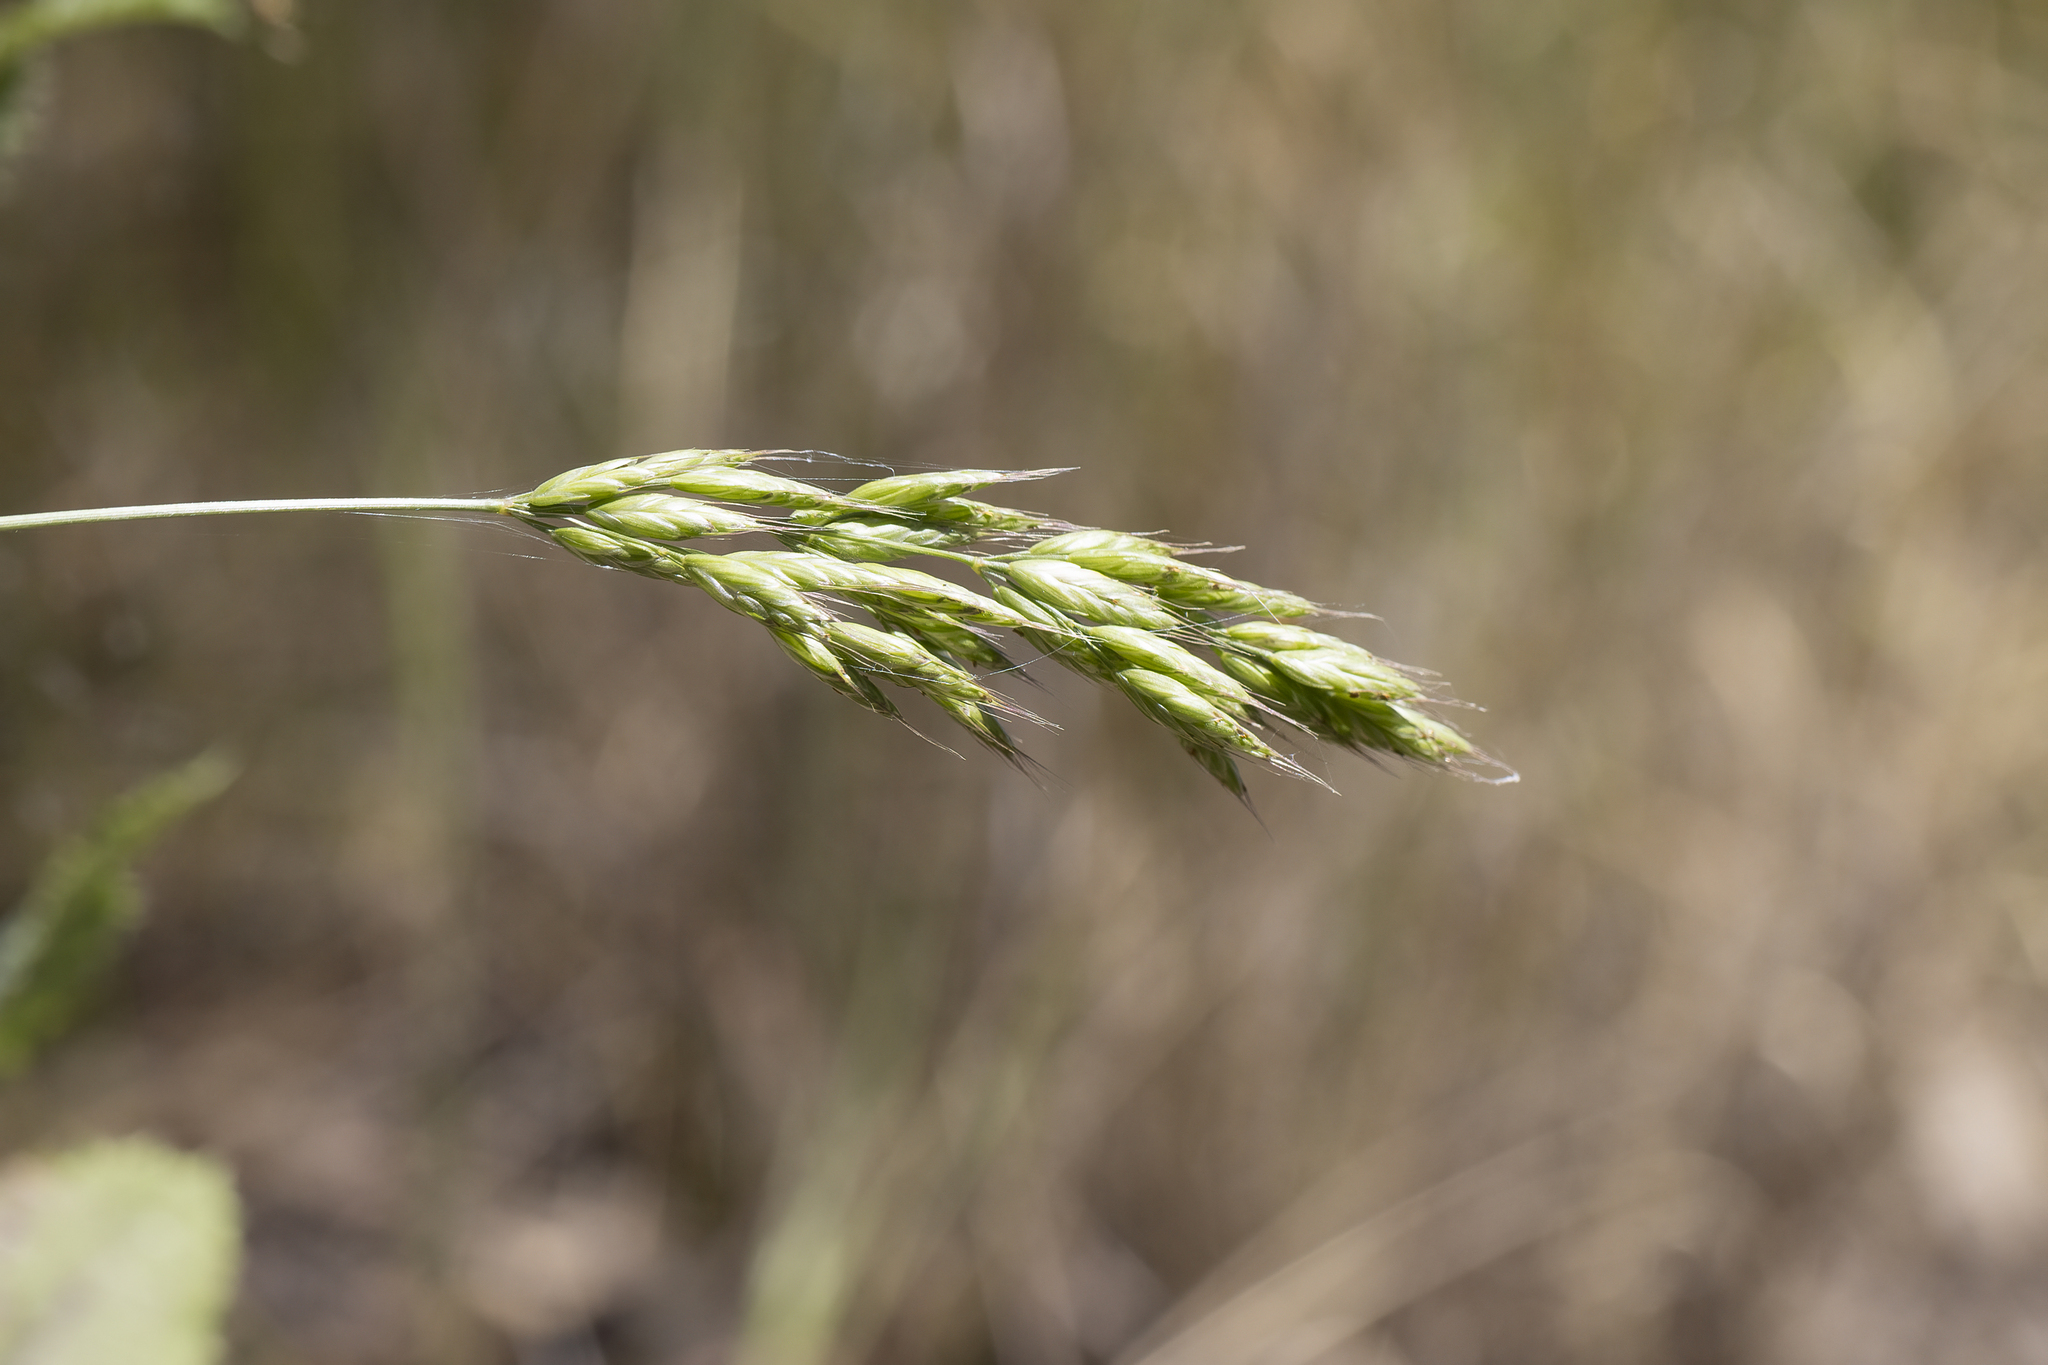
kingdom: Plantae
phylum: Tracheophyta
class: Liliopsida
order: Poales
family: Poaceae
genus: Bromus
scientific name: Bromus hordeaceus
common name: Soft brome
